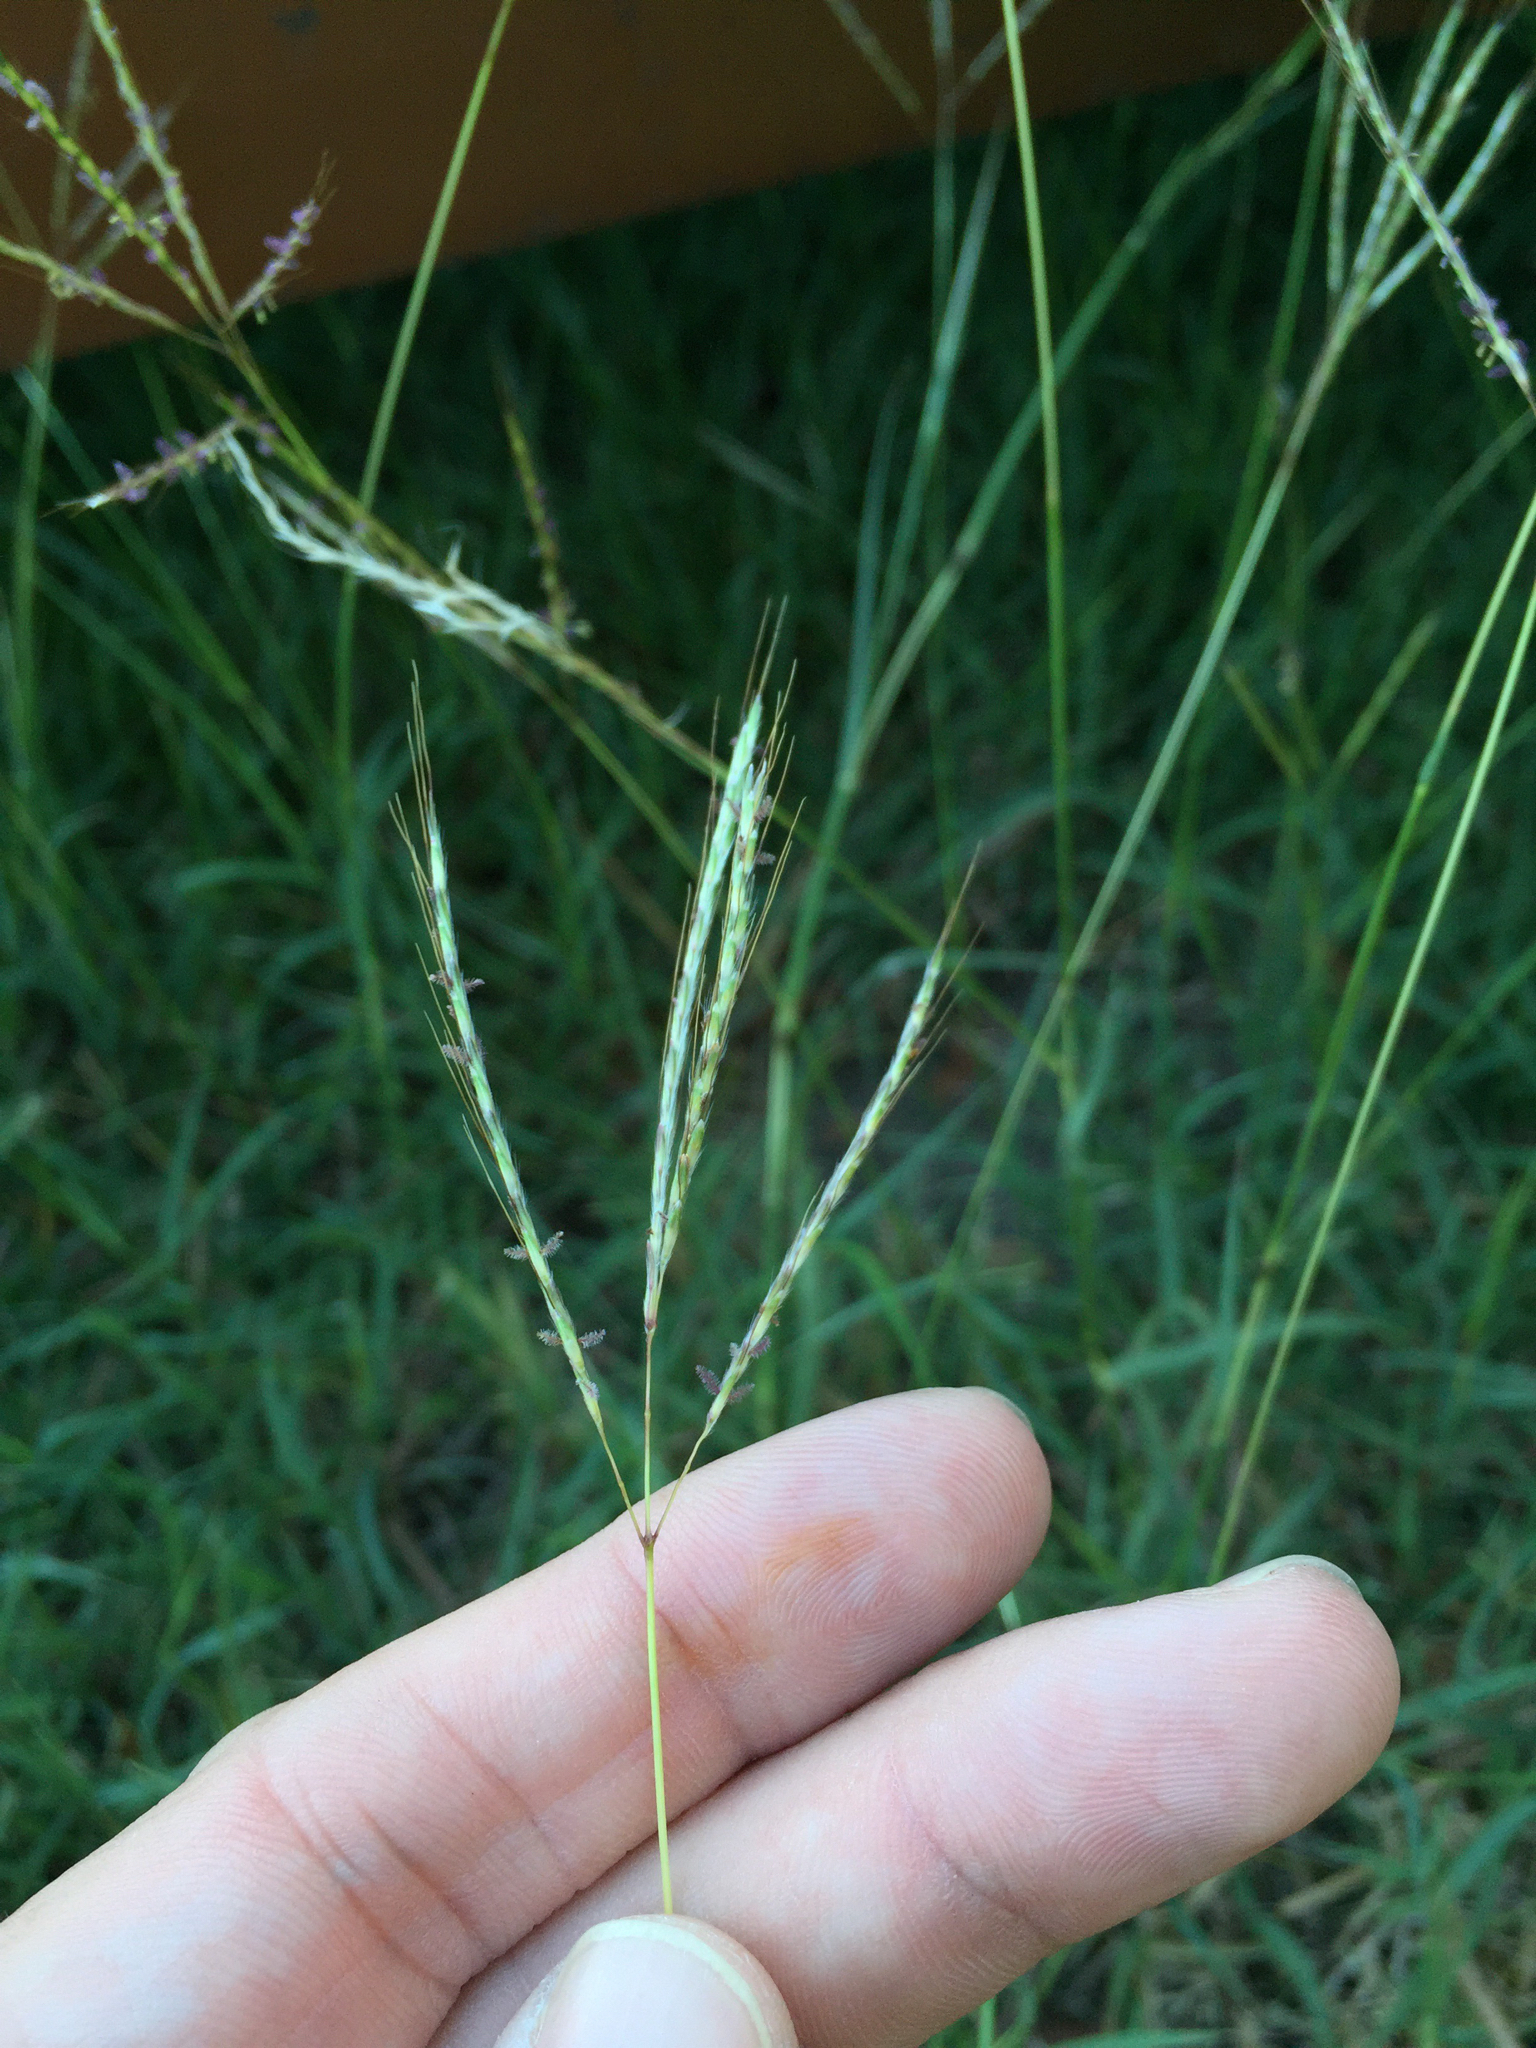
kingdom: Plantae
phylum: Tracheophyta
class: Liliopsida
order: Poales
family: Poaceae
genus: Bothriochloa
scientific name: Bothriochloa ischaemum
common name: Yellow bluestem
